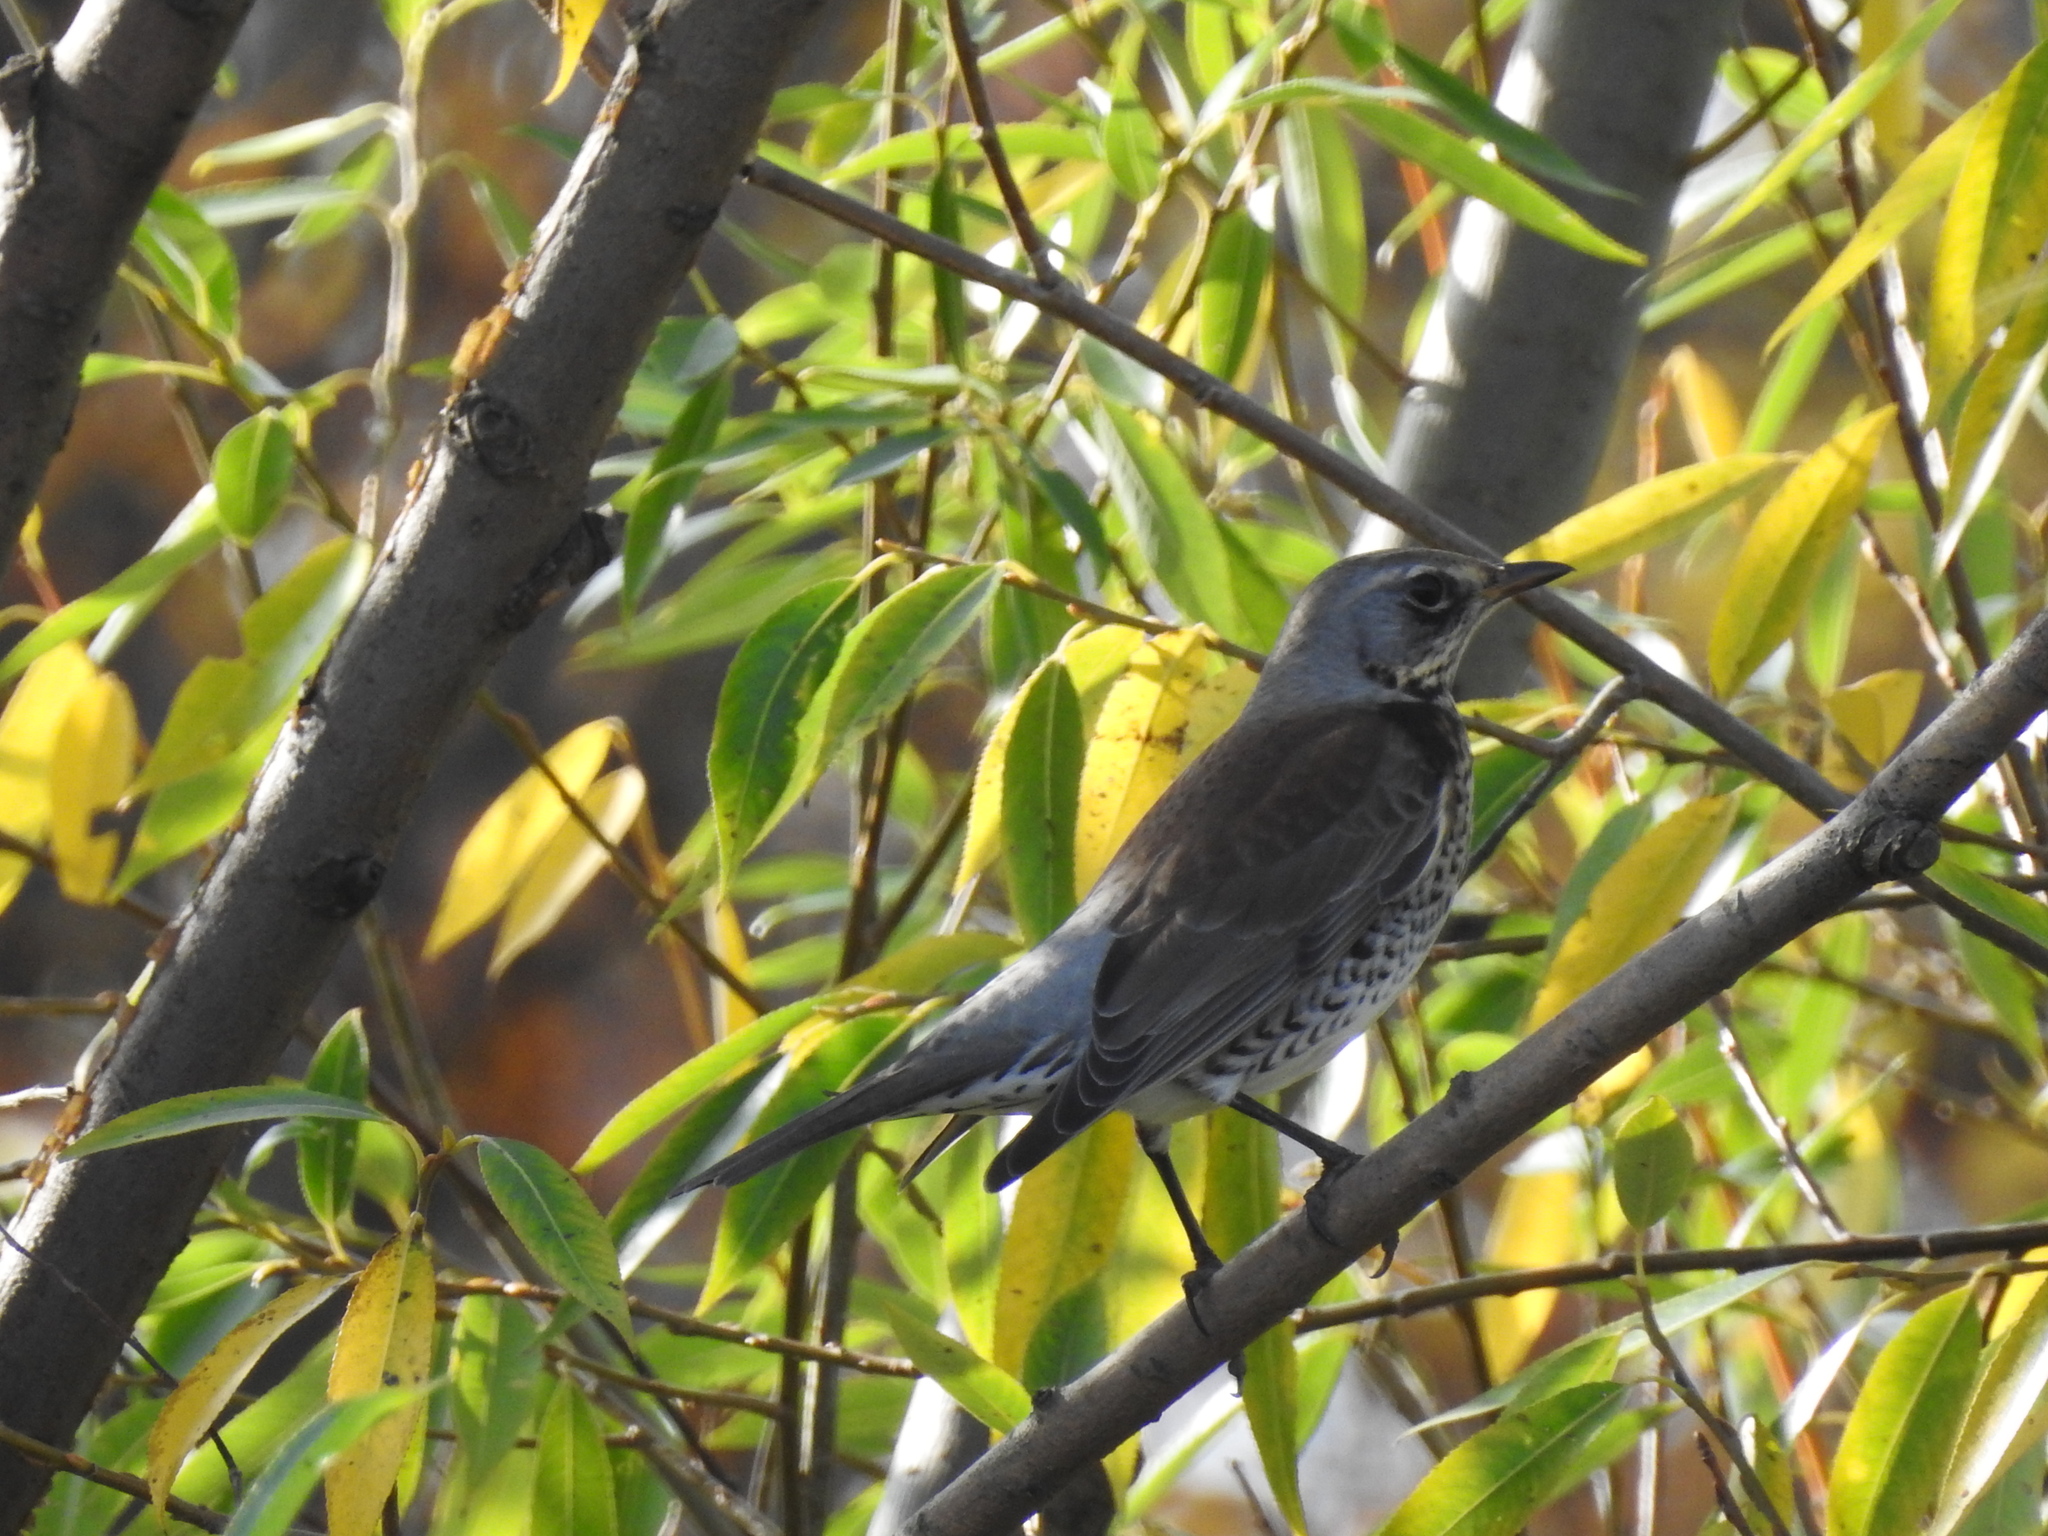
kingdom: Animalia
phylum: Chordata
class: Aves
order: Passeriformes
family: Turdidae
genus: Turdus
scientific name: Turdus pilaris
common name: Fieldfare
